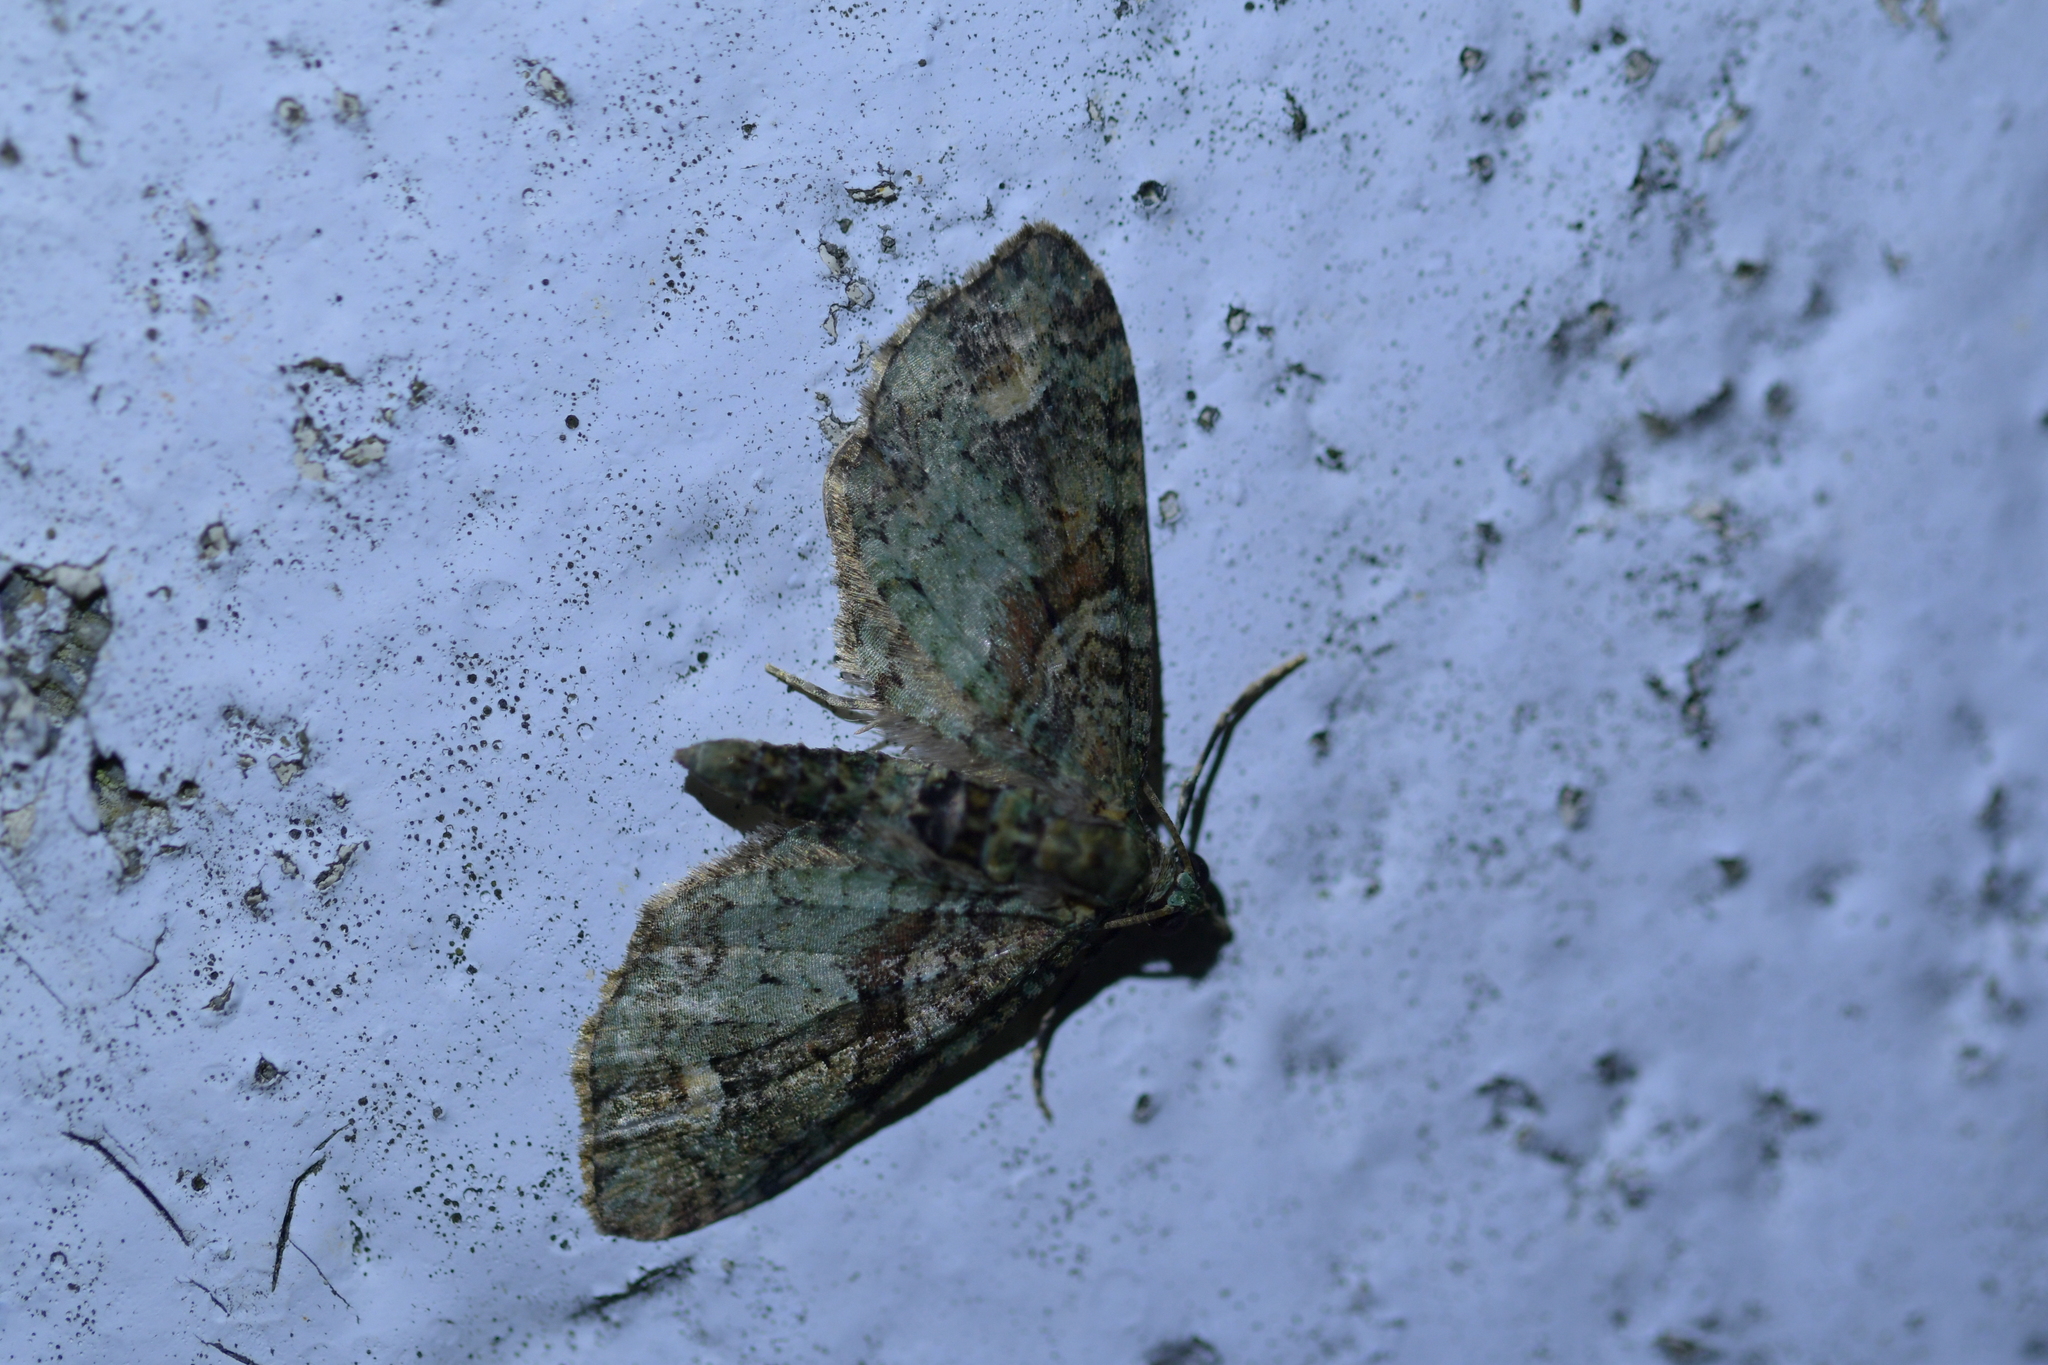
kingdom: Animalia
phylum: Arthropoda
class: Insecta
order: Lepidoptera
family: Geometridae
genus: Idaea
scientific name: Idaea mutanda
